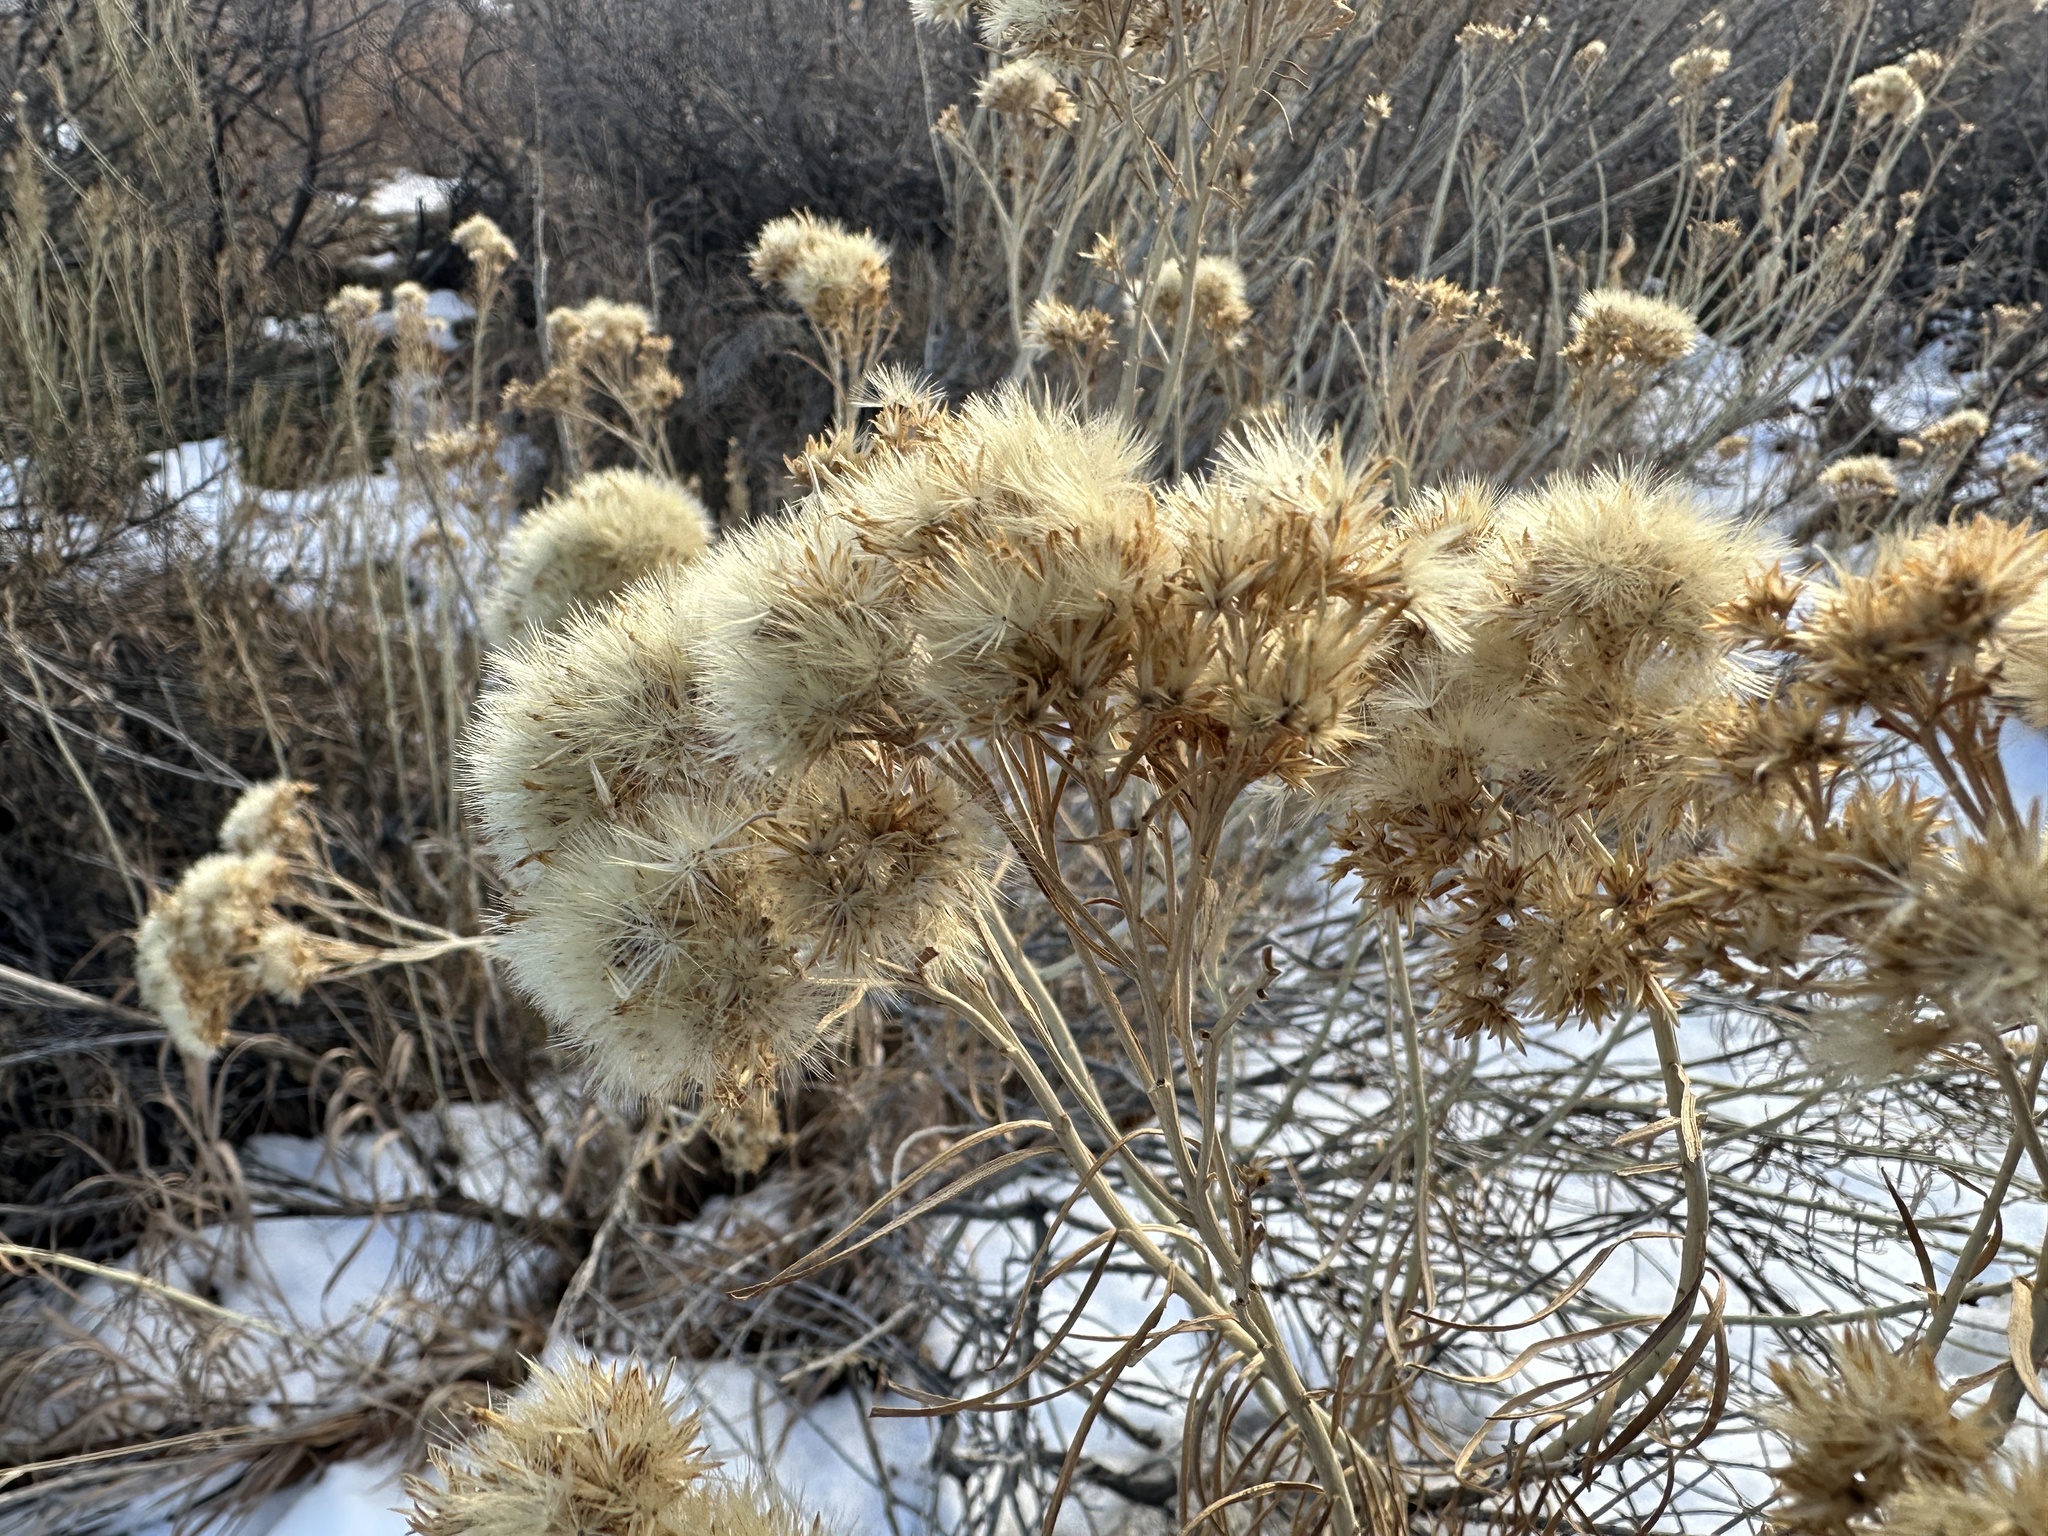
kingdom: Plantae
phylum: Tracheophyta
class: Magnoliopsida
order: Asterales
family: Asteraceae
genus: Ericameria
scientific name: Ericameria nauseosa
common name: Rubber rabbitbrush
